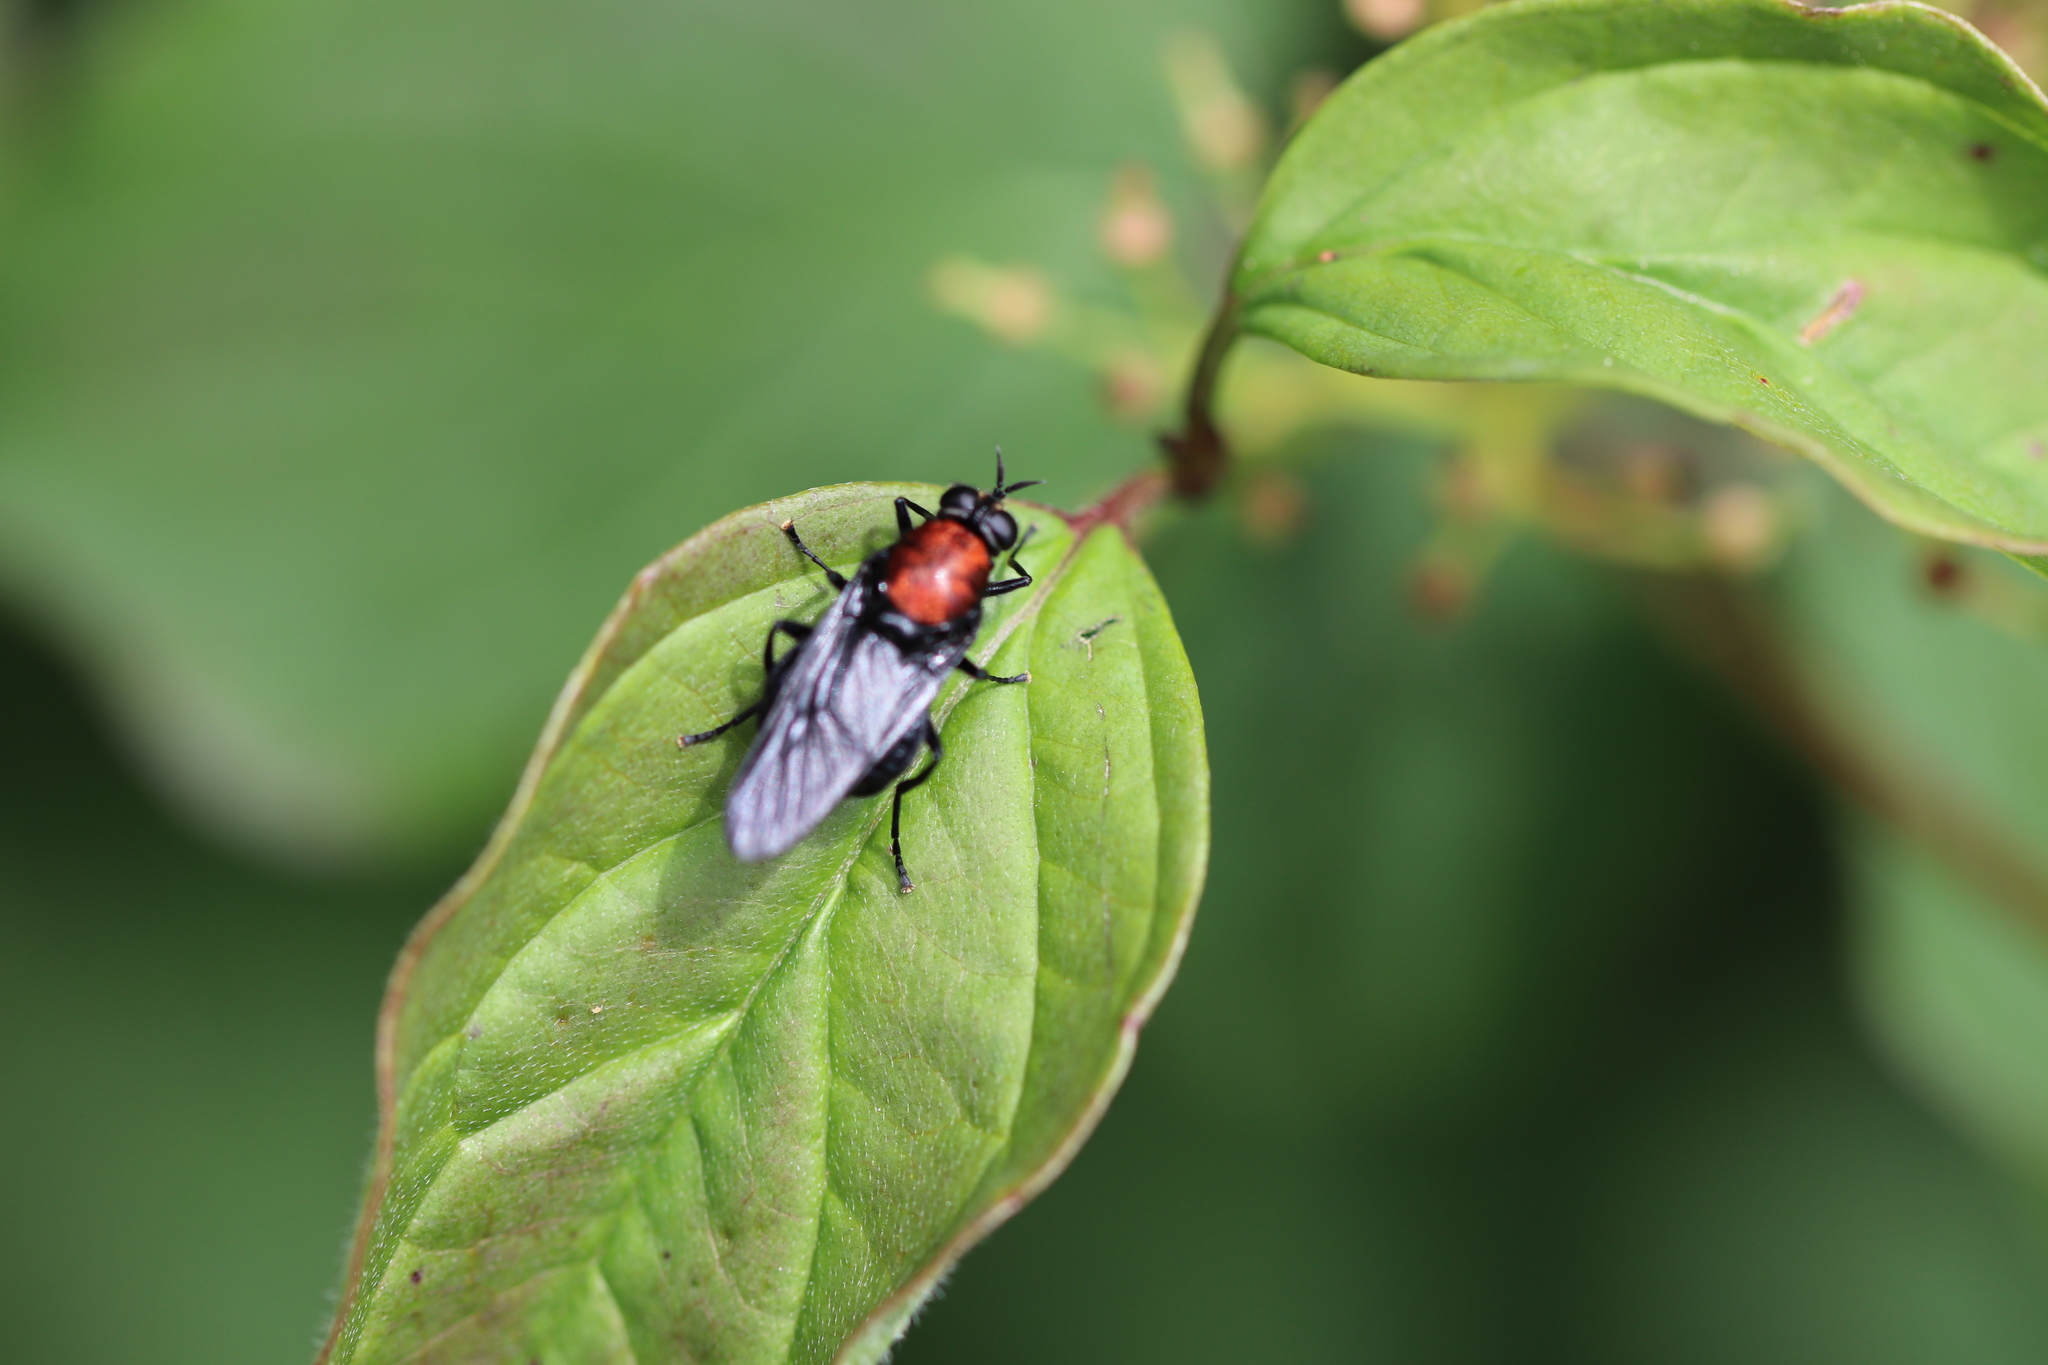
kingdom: Animalia
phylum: Arthropoda
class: Insecta
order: Diptera
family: Stratiomyidae
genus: Clitellaria
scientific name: Clitellaria ephippium
